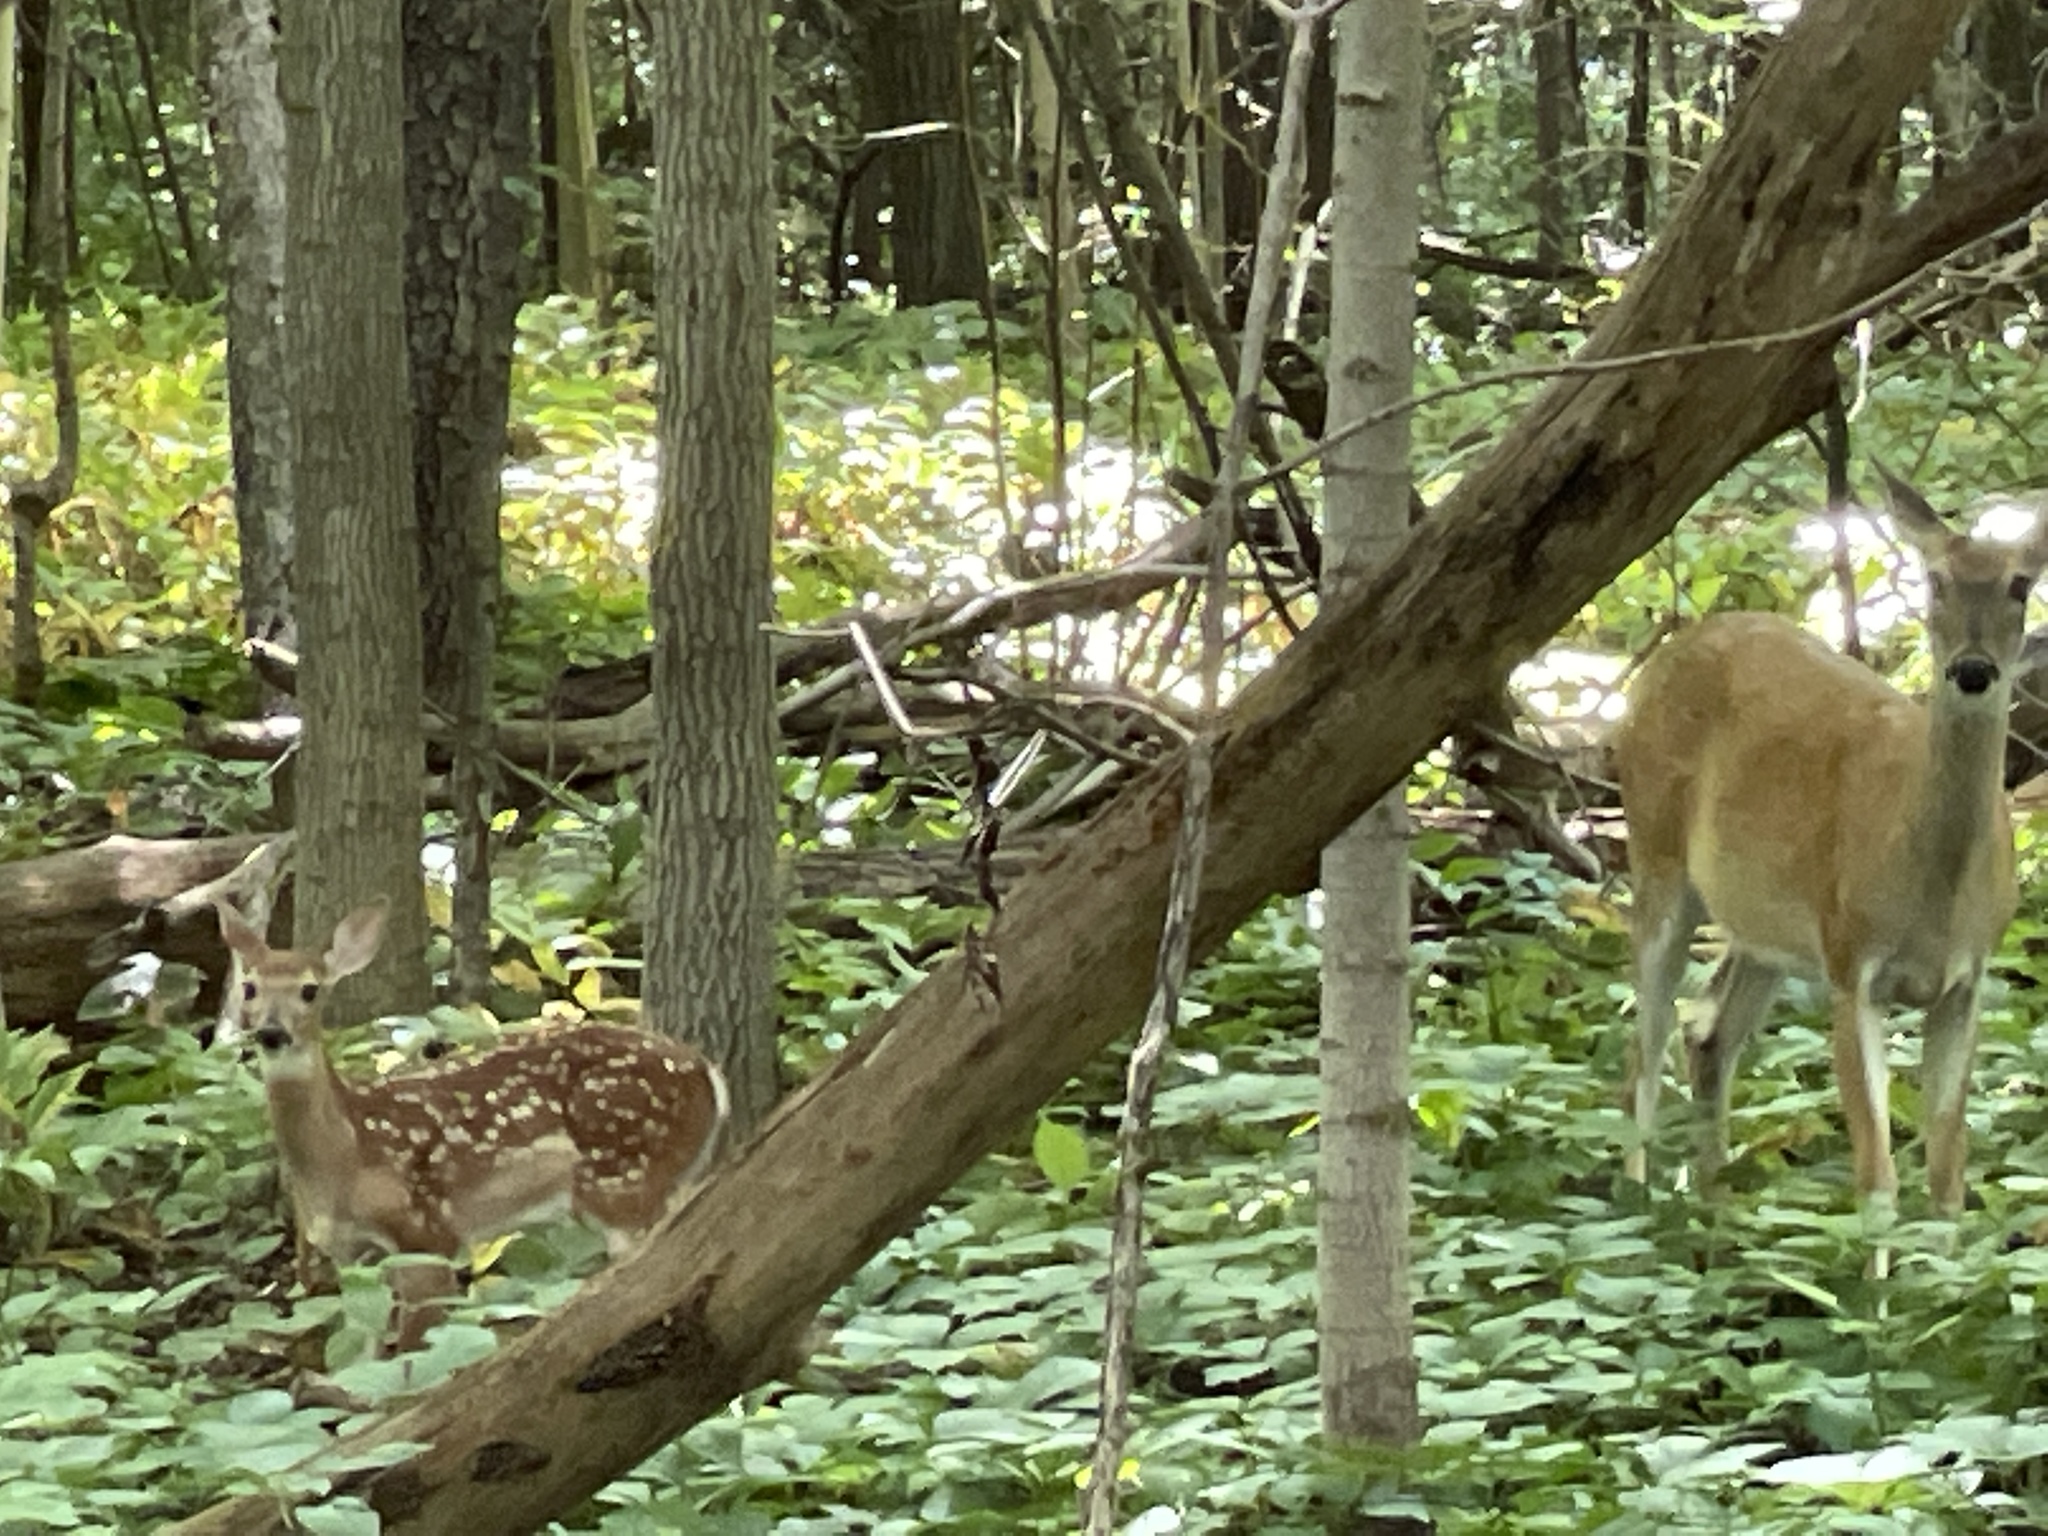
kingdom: Animalia
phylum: Chordata
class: Mammalia
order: Artiodactyla
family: Cervidae
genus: Odocoileus
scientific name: Odocoileus virginianus
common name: White-tailed deer
